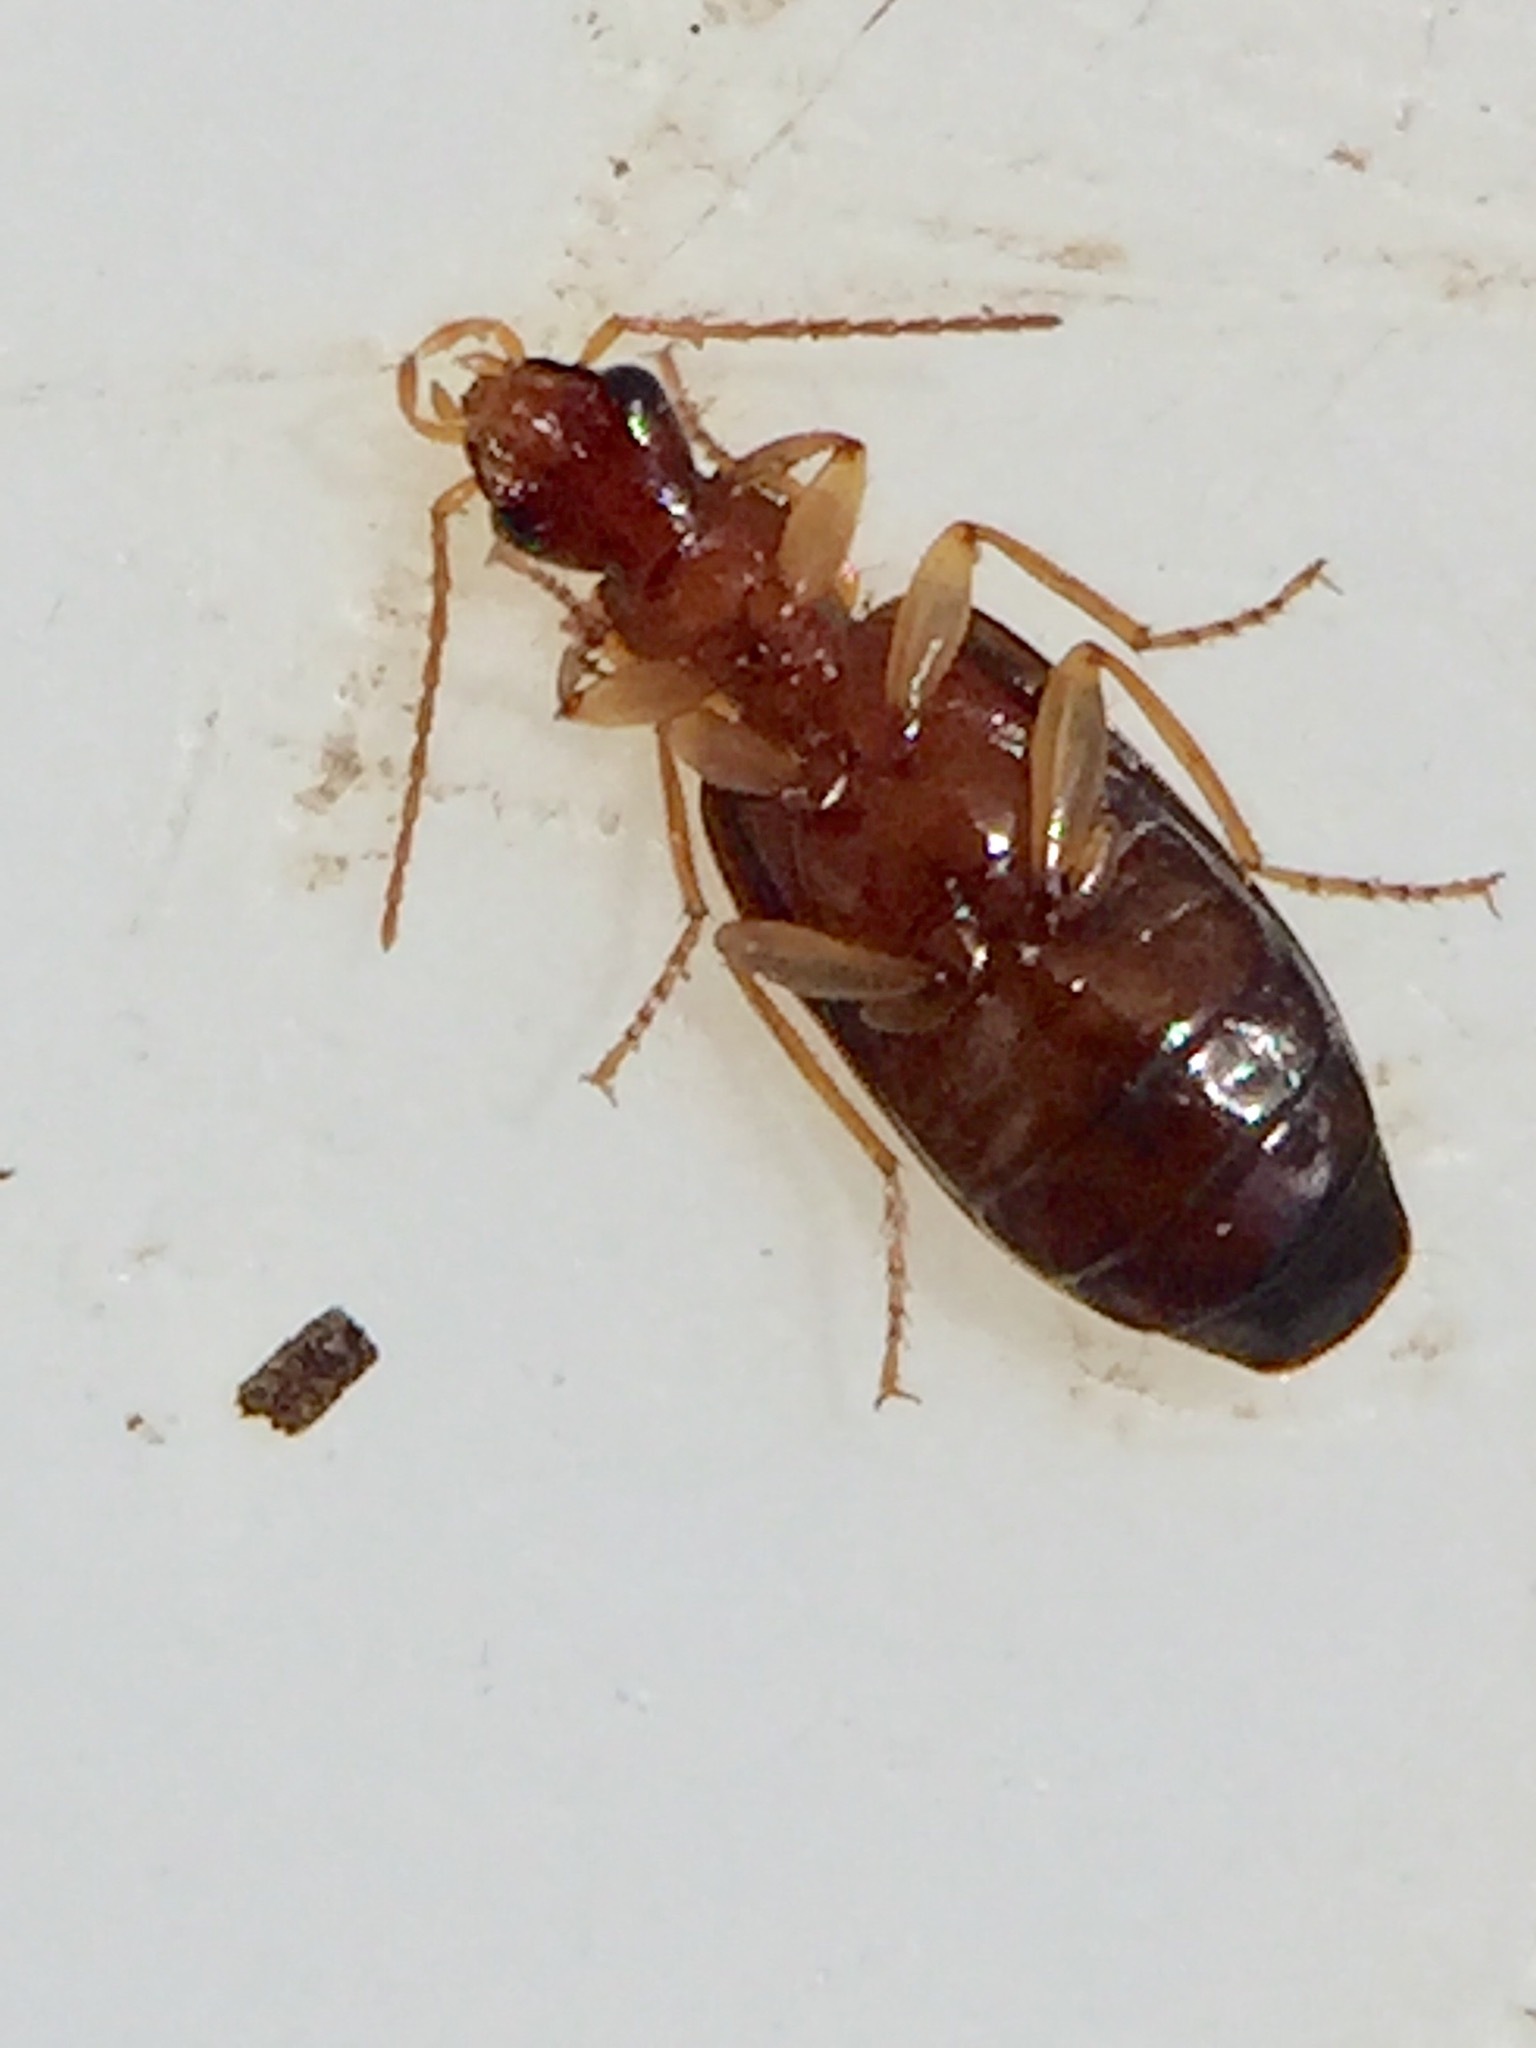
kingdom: Animalia
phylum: Arthropoda
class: Insecta
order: Coleoptera
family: Carabidae
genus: Dromius
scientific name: Dromius meridionalis
